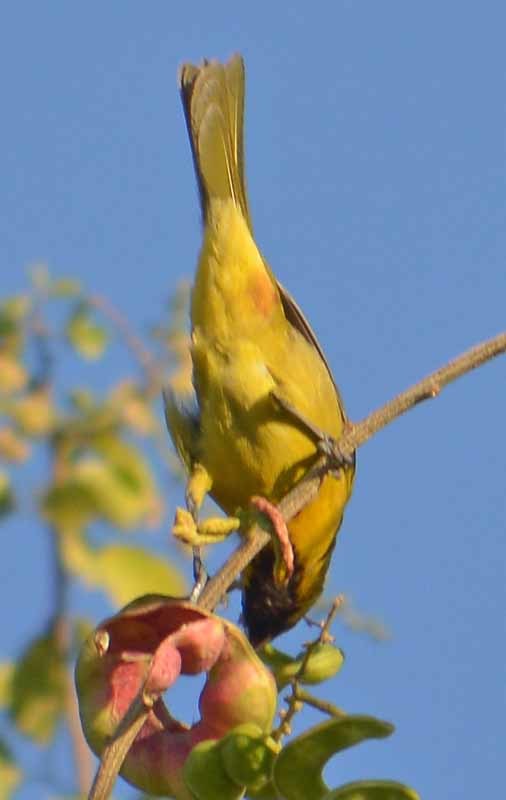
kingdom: Animalia
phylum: Chordata
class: Aves
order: Passeriformes
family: Icteridae
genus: Icterus
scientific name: Icterus spurius
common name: Orchard oriole
